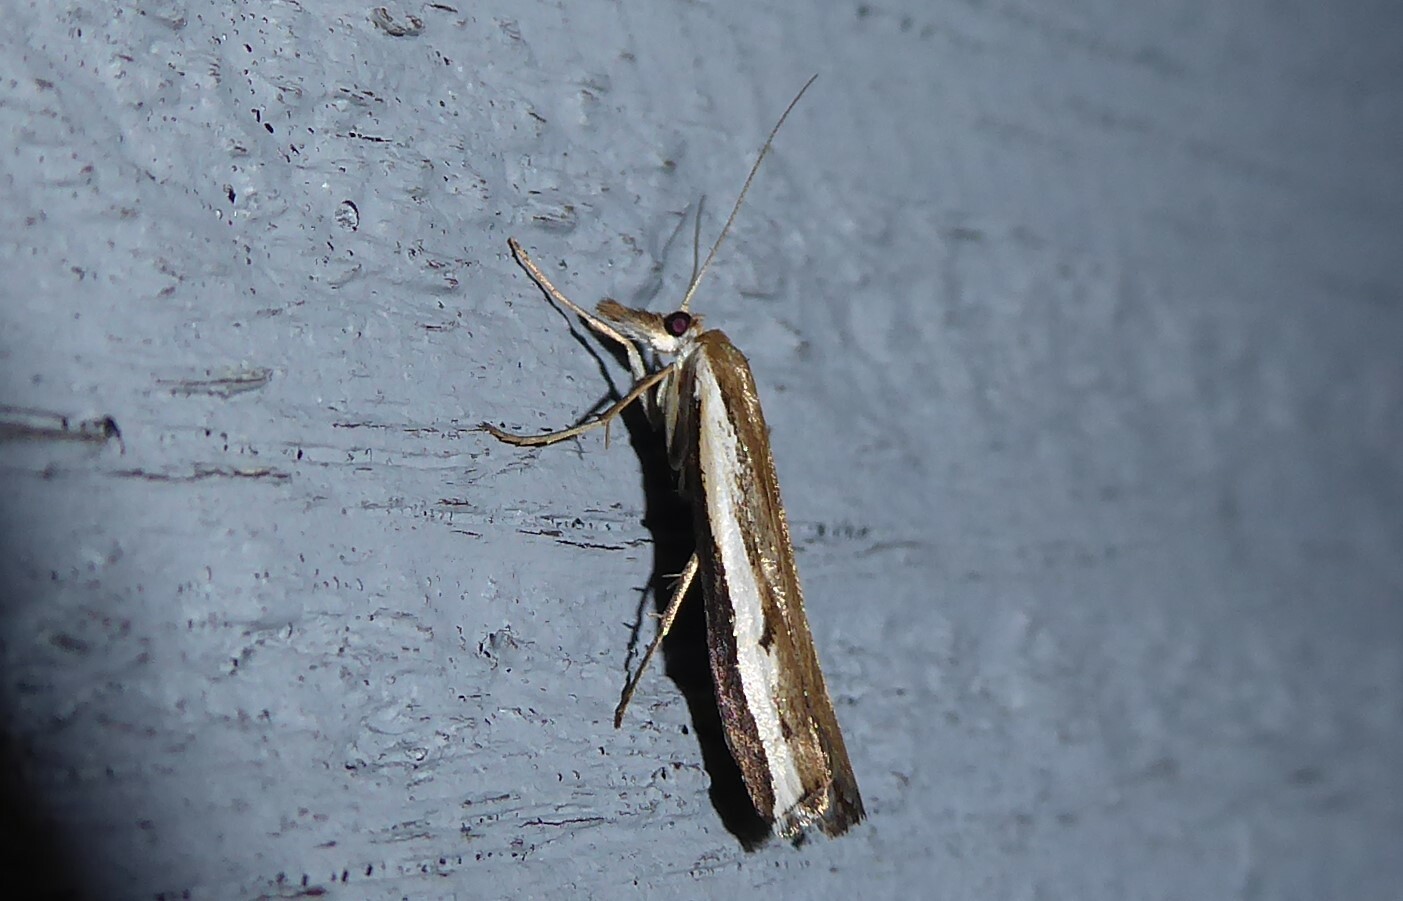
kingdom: Animalia
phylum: Arthropoda
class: Insecta
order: Lepidoptera
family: Crambidae
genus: Orocrambus
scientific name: Orocrambus flexuosellus
